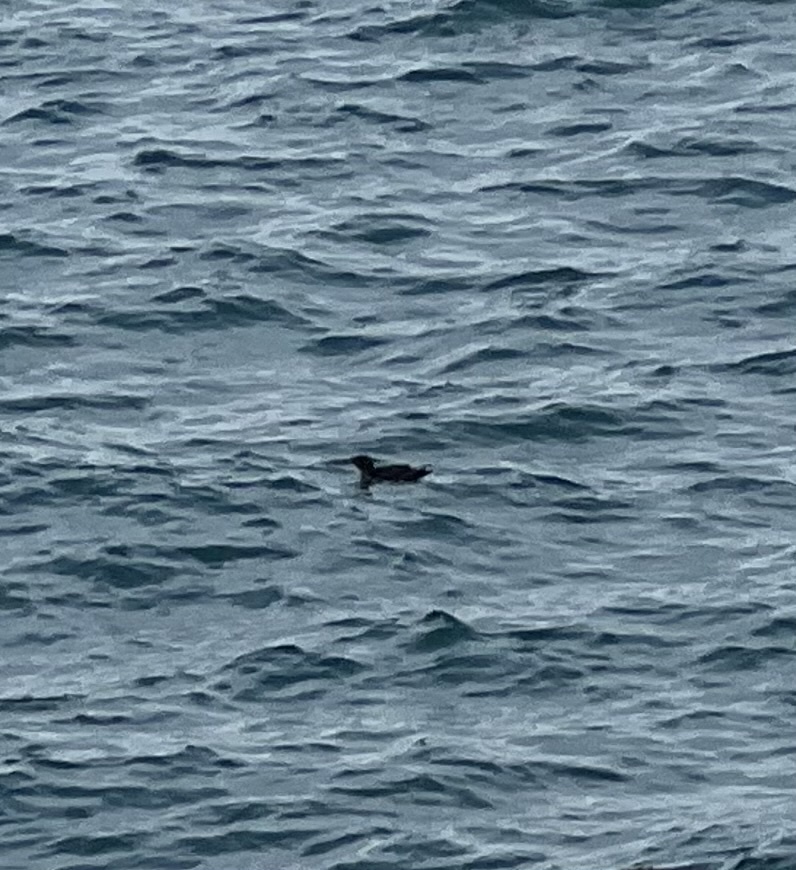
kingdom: Animalia
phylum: Chordata
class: Aves
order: Charadriiformes
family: Alcidae
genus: Cerorhinca
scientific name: Cerorhinca monocerata
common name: Rhinoceros auklet
